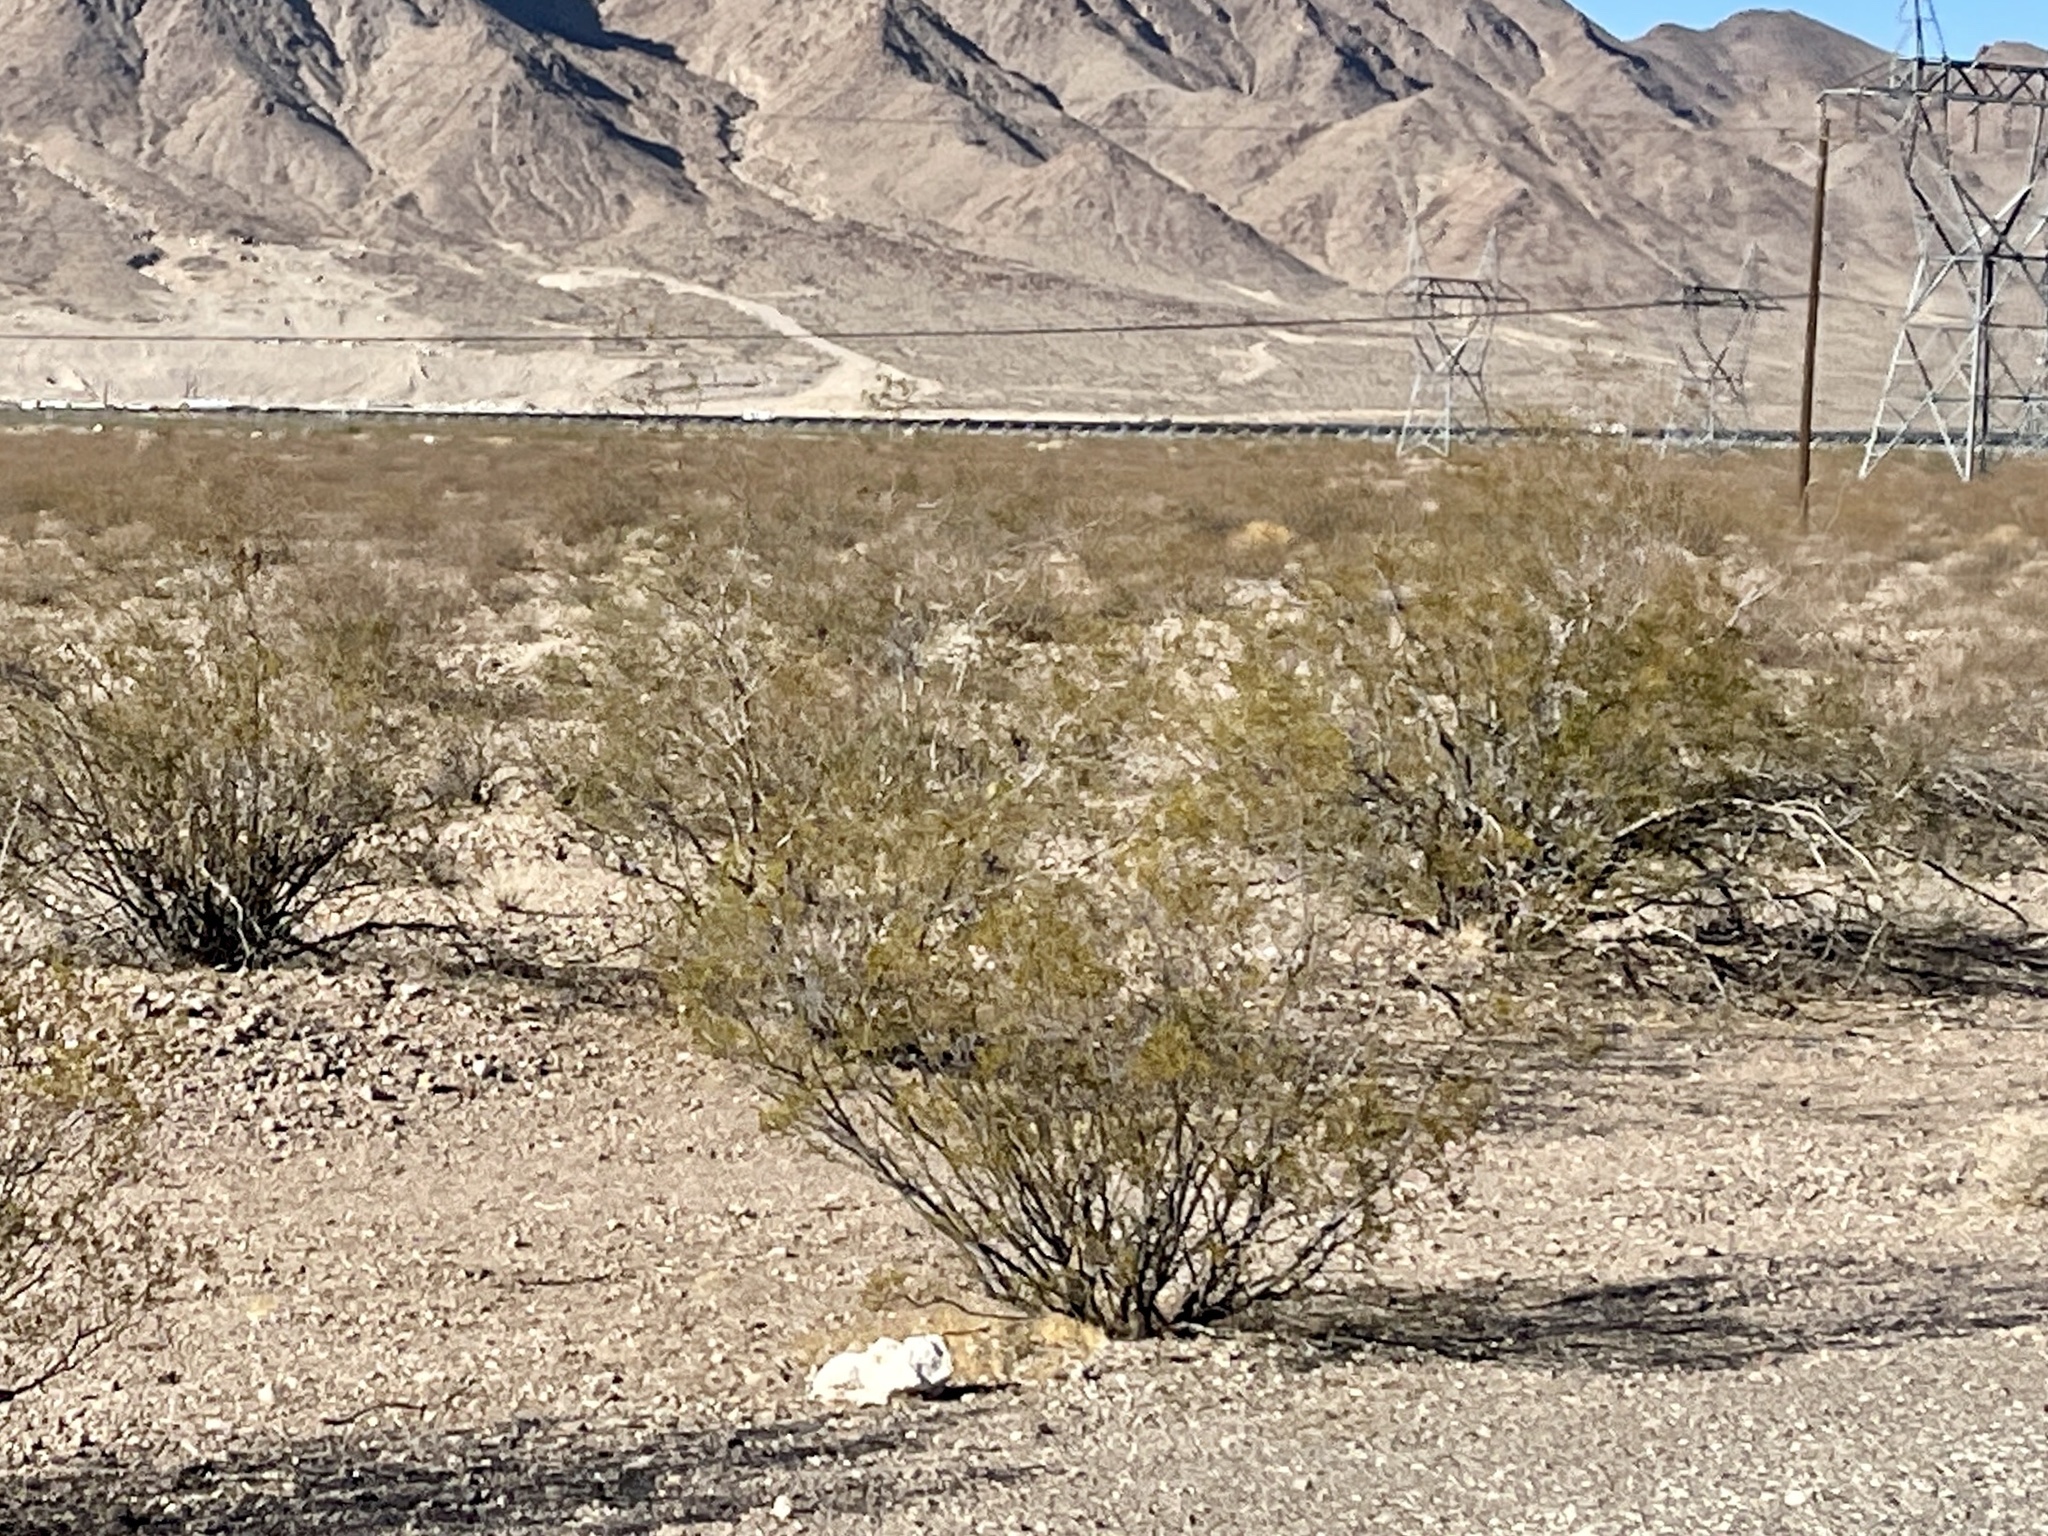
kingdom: Plantae
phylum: Tracheophyta
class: Magnoliopsida
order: Zygophyllales
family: Zygophyllaceae
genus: Larrea
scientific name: Larrea tridentata
